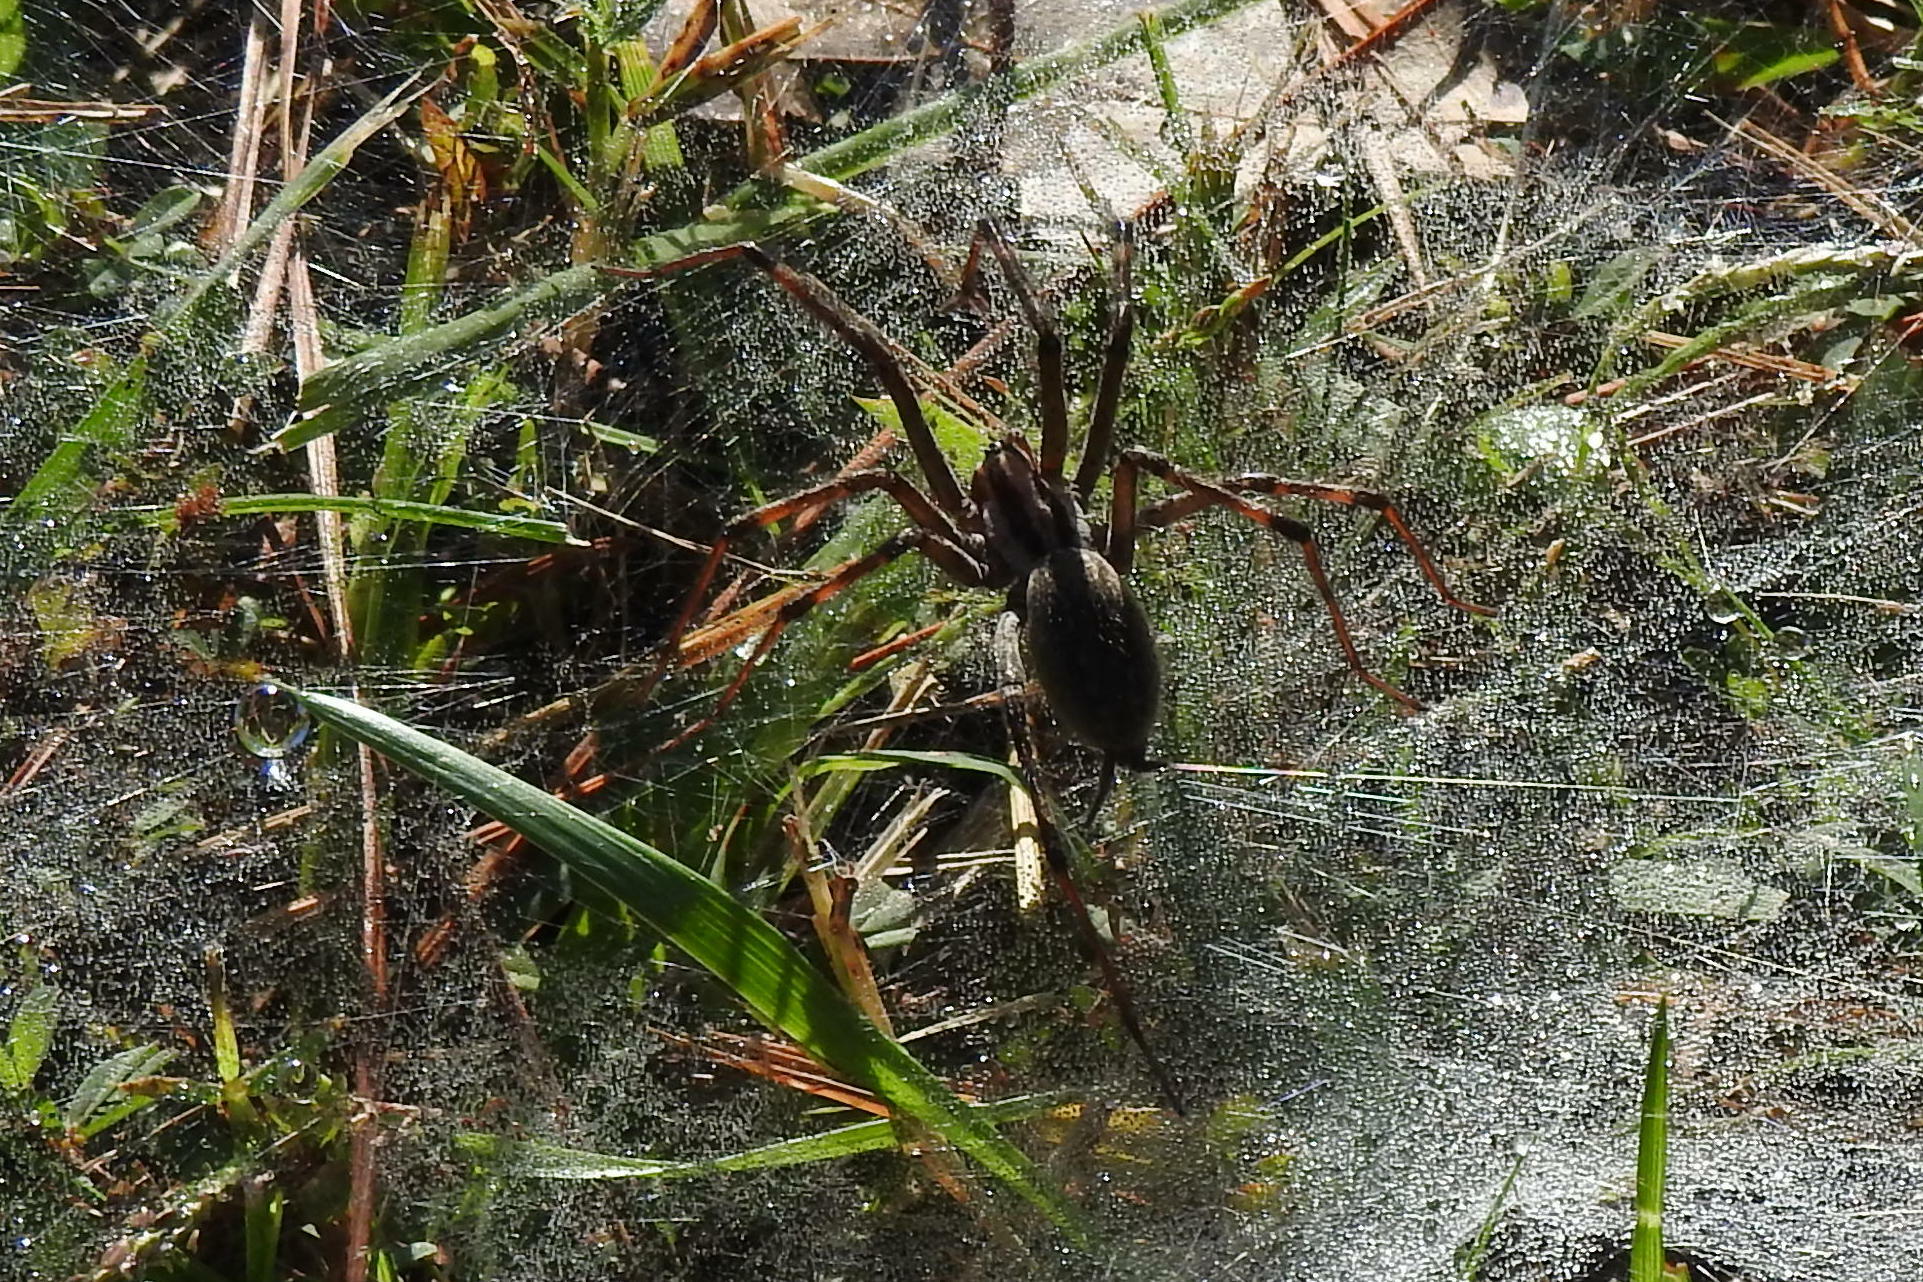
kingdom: Animalia
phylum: Arthropoda
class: Arachnida
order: Araneae
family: Agelenidae
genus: Agelenopsis
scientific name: Agelenopsis
